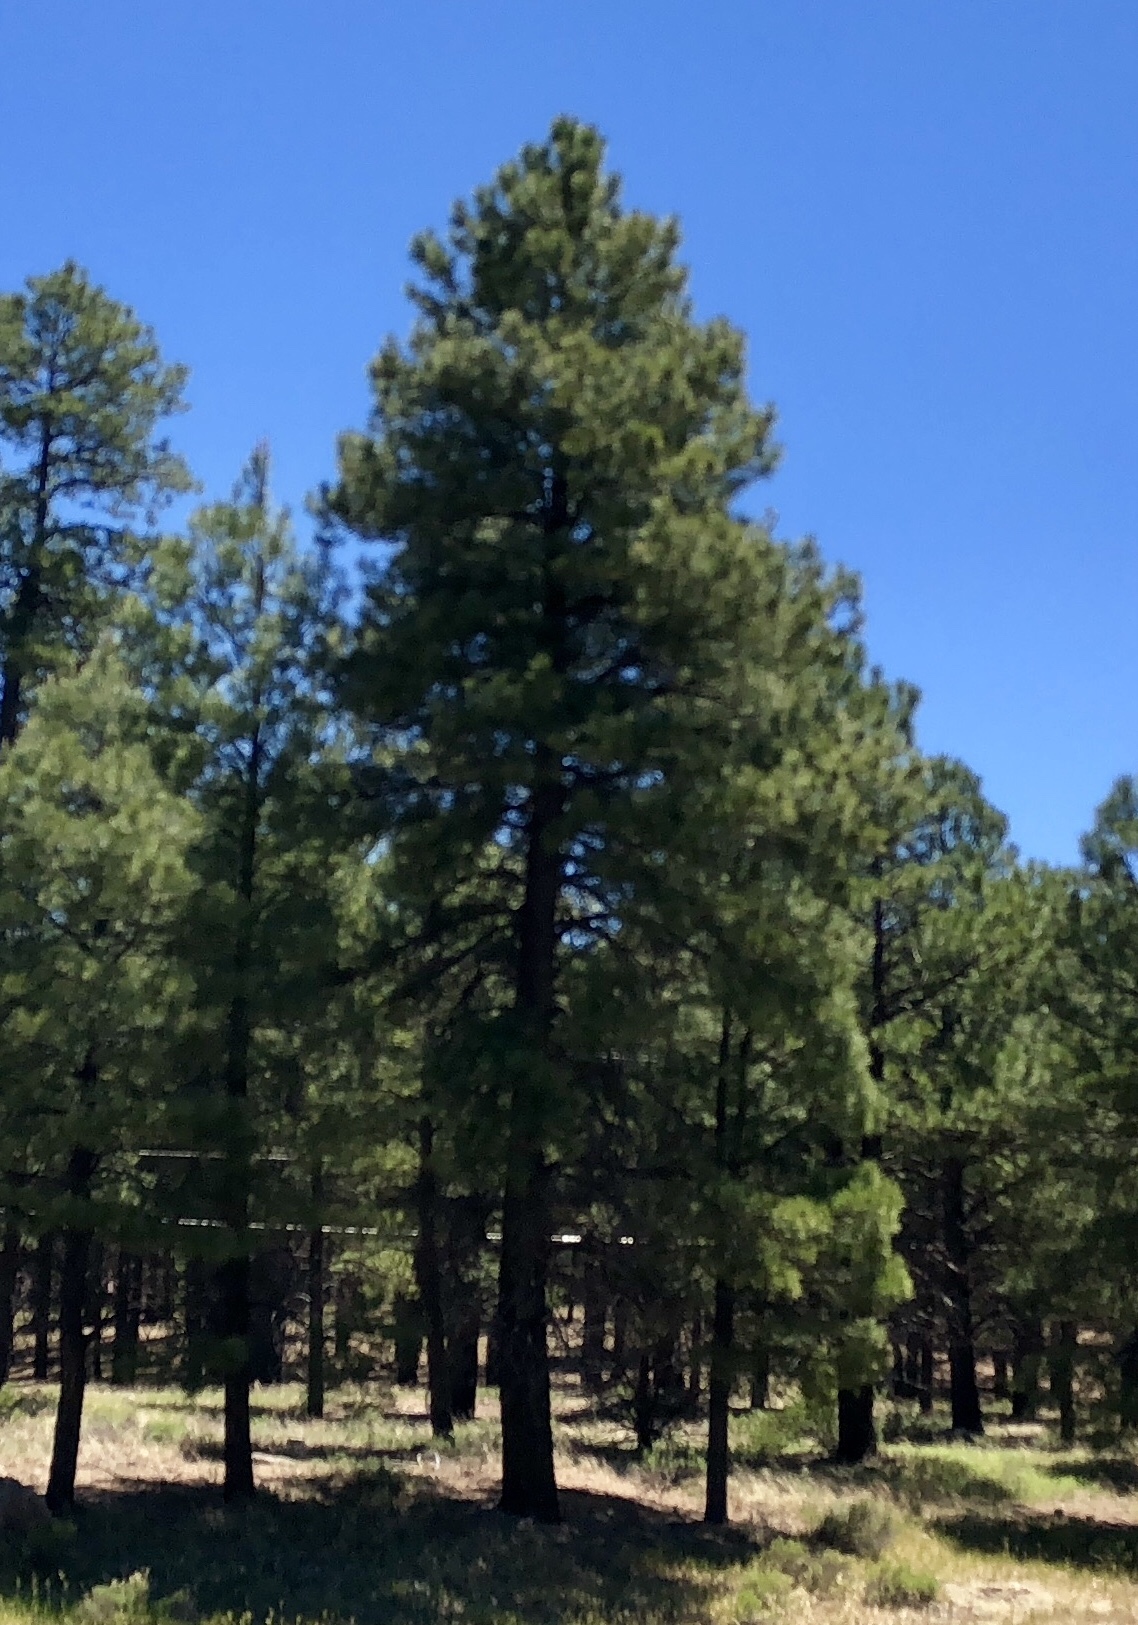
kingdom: Plantae
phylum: Tracheophyta
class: Pinopsida
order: Pinales
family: Pinaceae
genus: Pinus
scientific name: Pinus ponderosa
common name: Western yellow-pine
